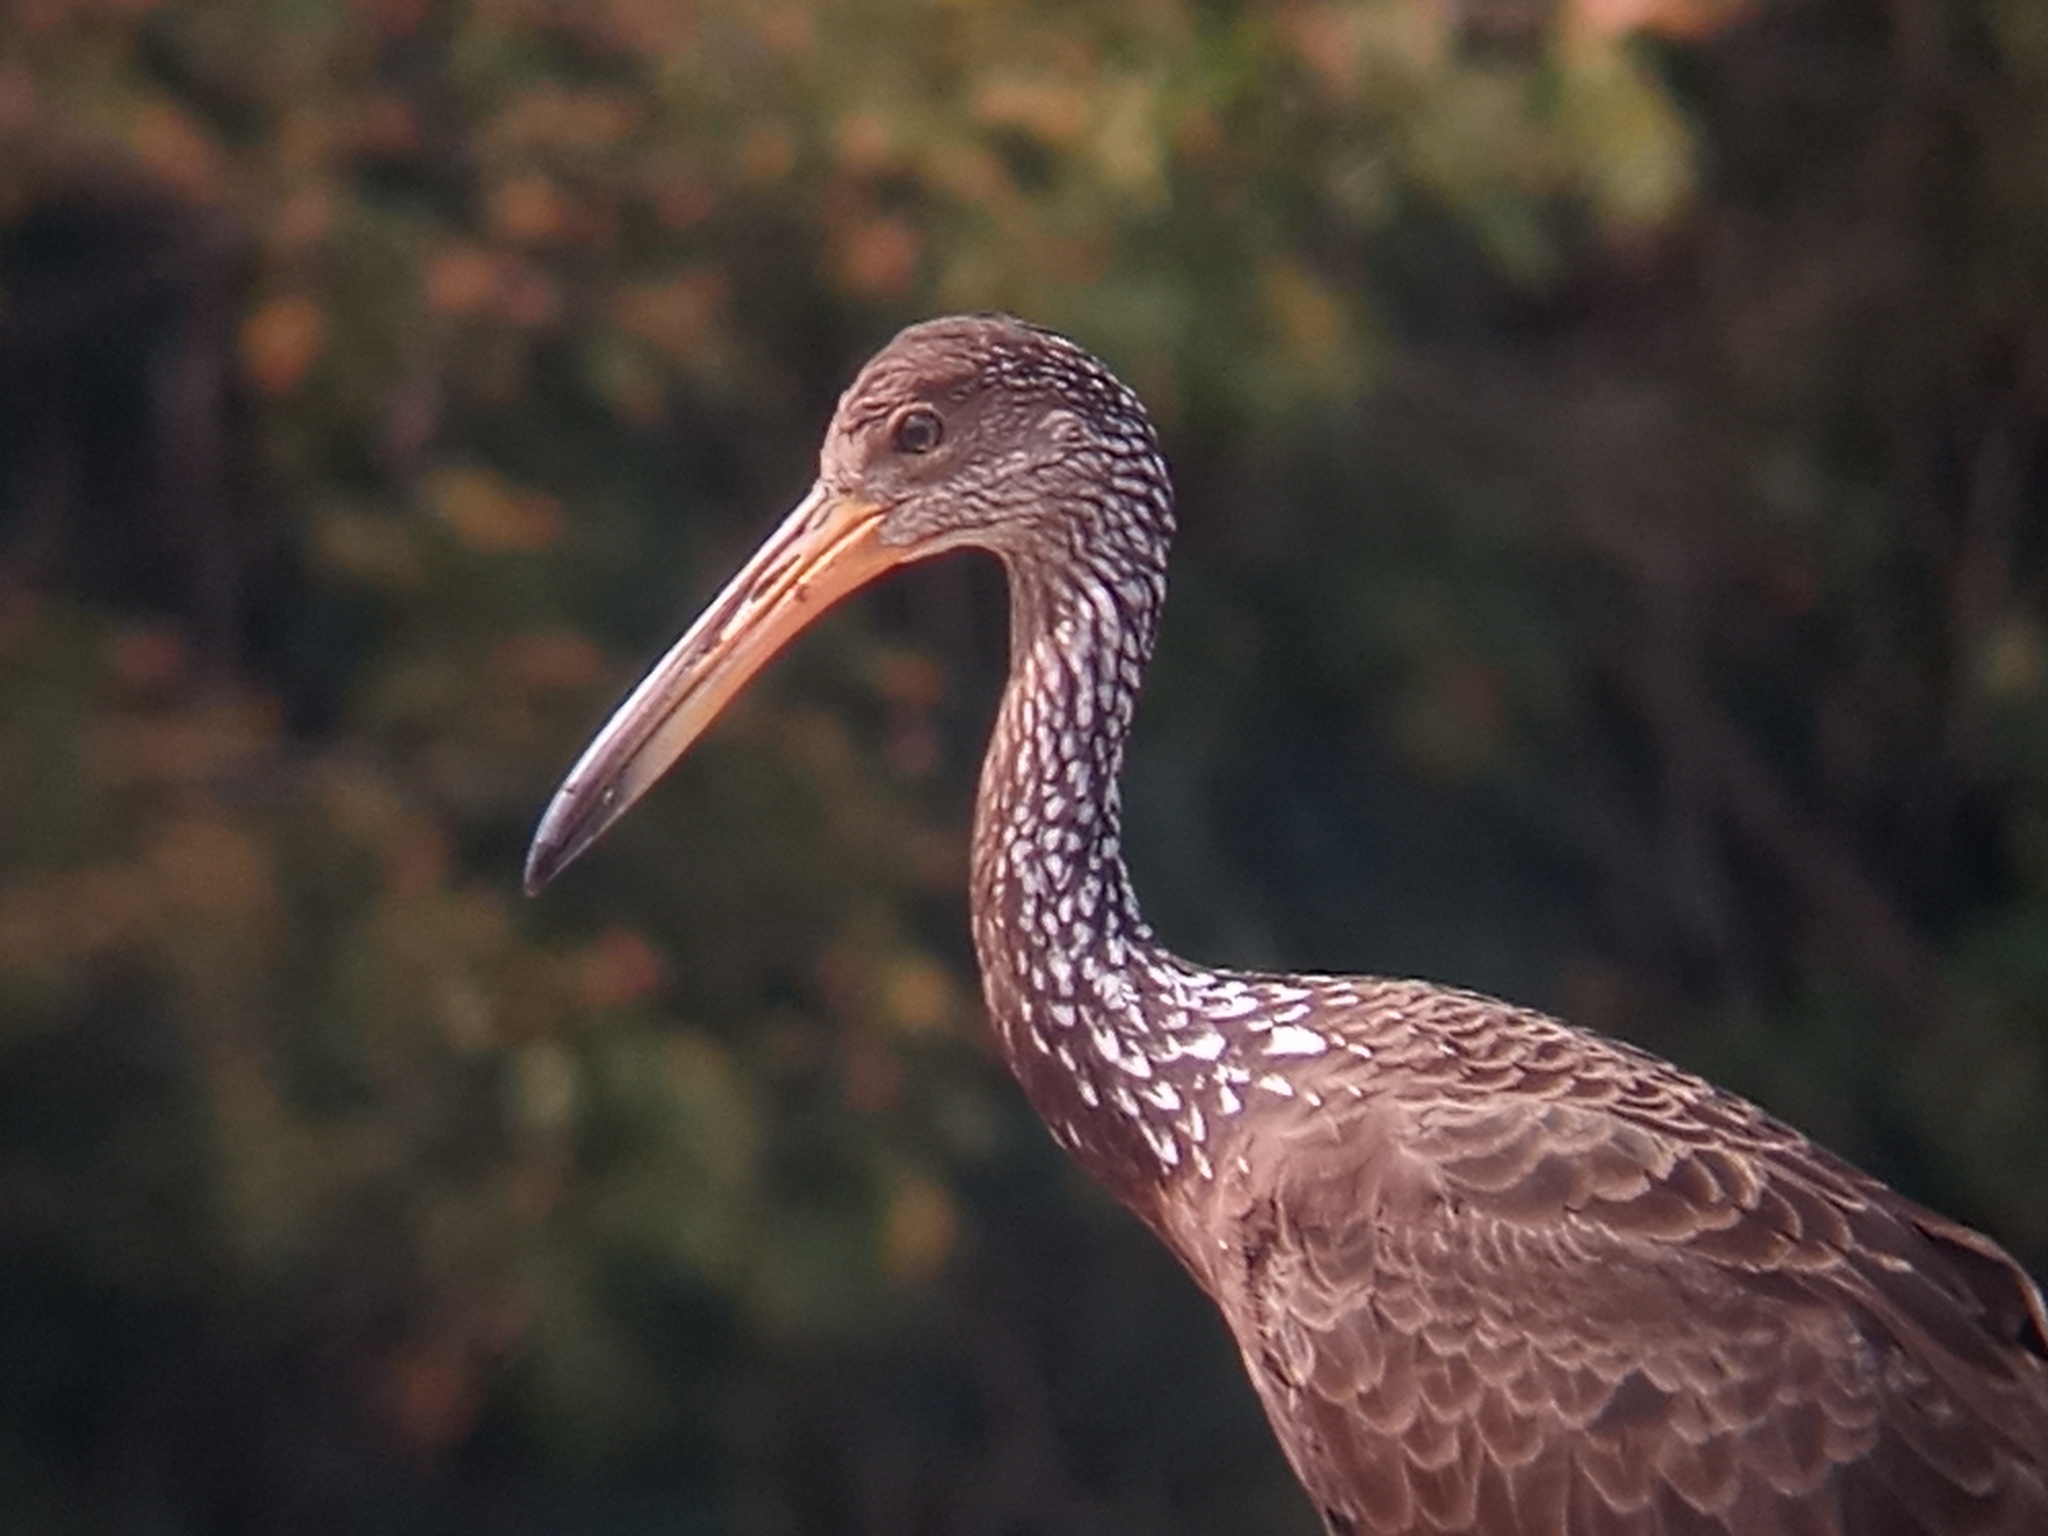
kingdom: Animalia
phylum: Chordata
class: Aves
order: Gruiformes
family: Aramidae
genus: Aramus
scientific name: Aramus guarauna
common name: Limpkin
